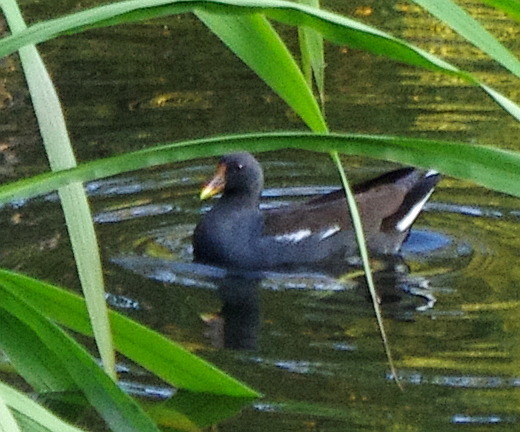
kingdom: Animalia
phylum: Chordata
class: Aves
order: Gruiformes
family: Rallidae
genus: Gallinula
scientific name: Gallinula chloropus
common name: Common moorhen
